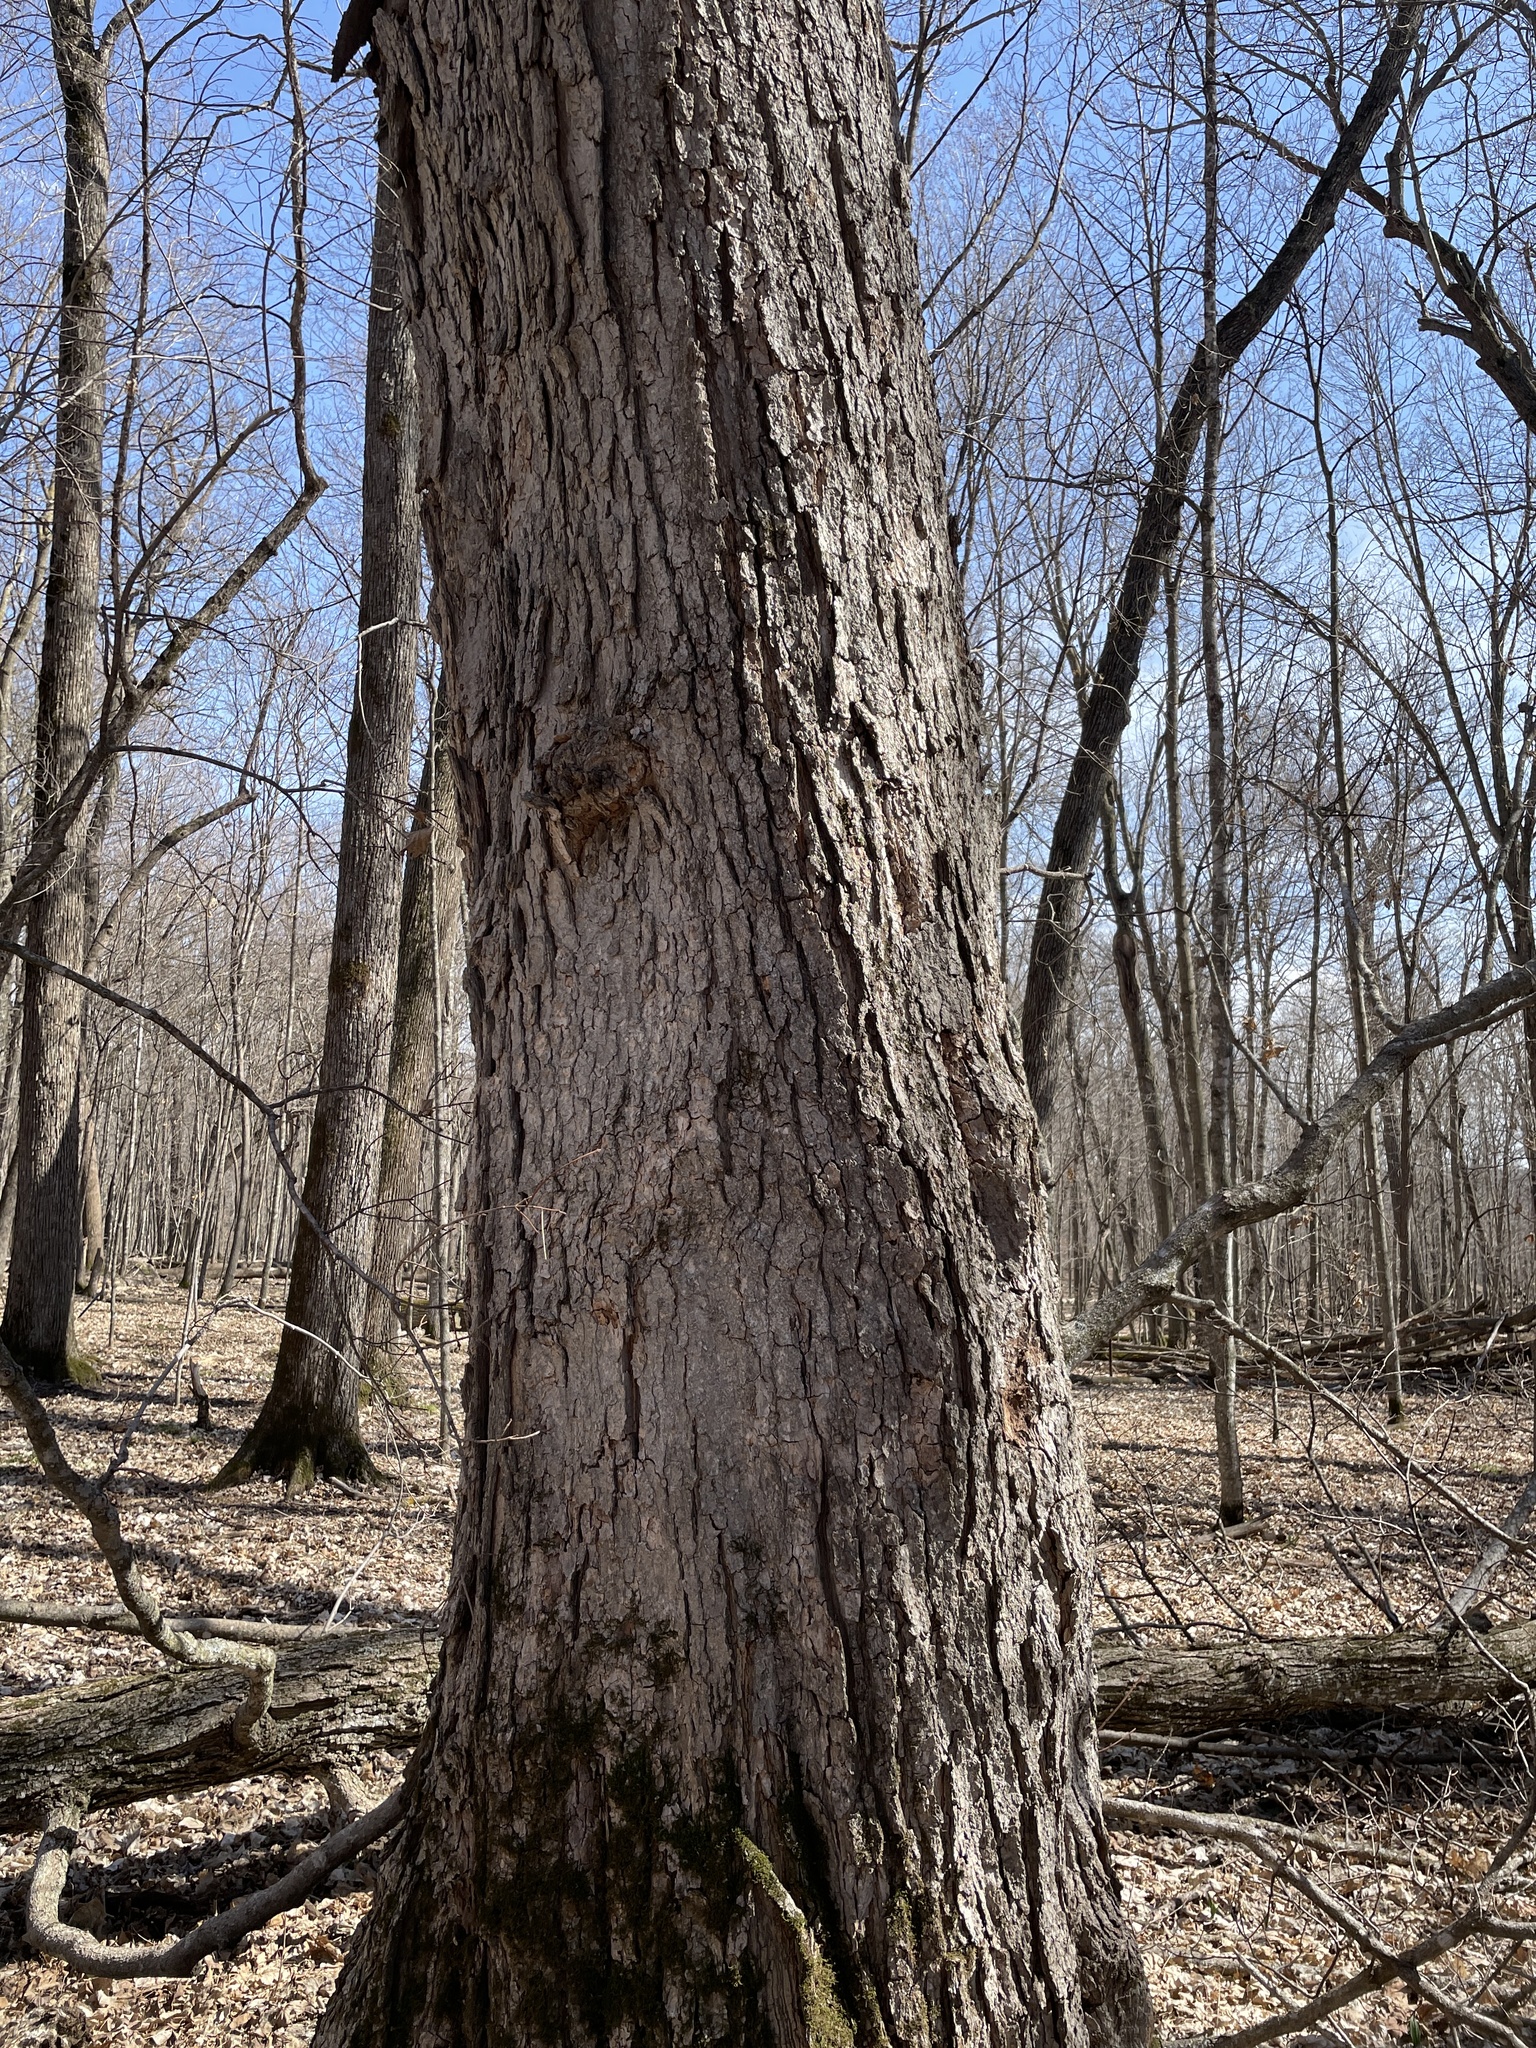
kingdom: Plantae
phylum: Tracheophyta
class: Magnoliopsida
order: Sapindales
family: Sapindaceae
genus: Acer
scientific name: Acer saccharum
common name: Sugar maple
